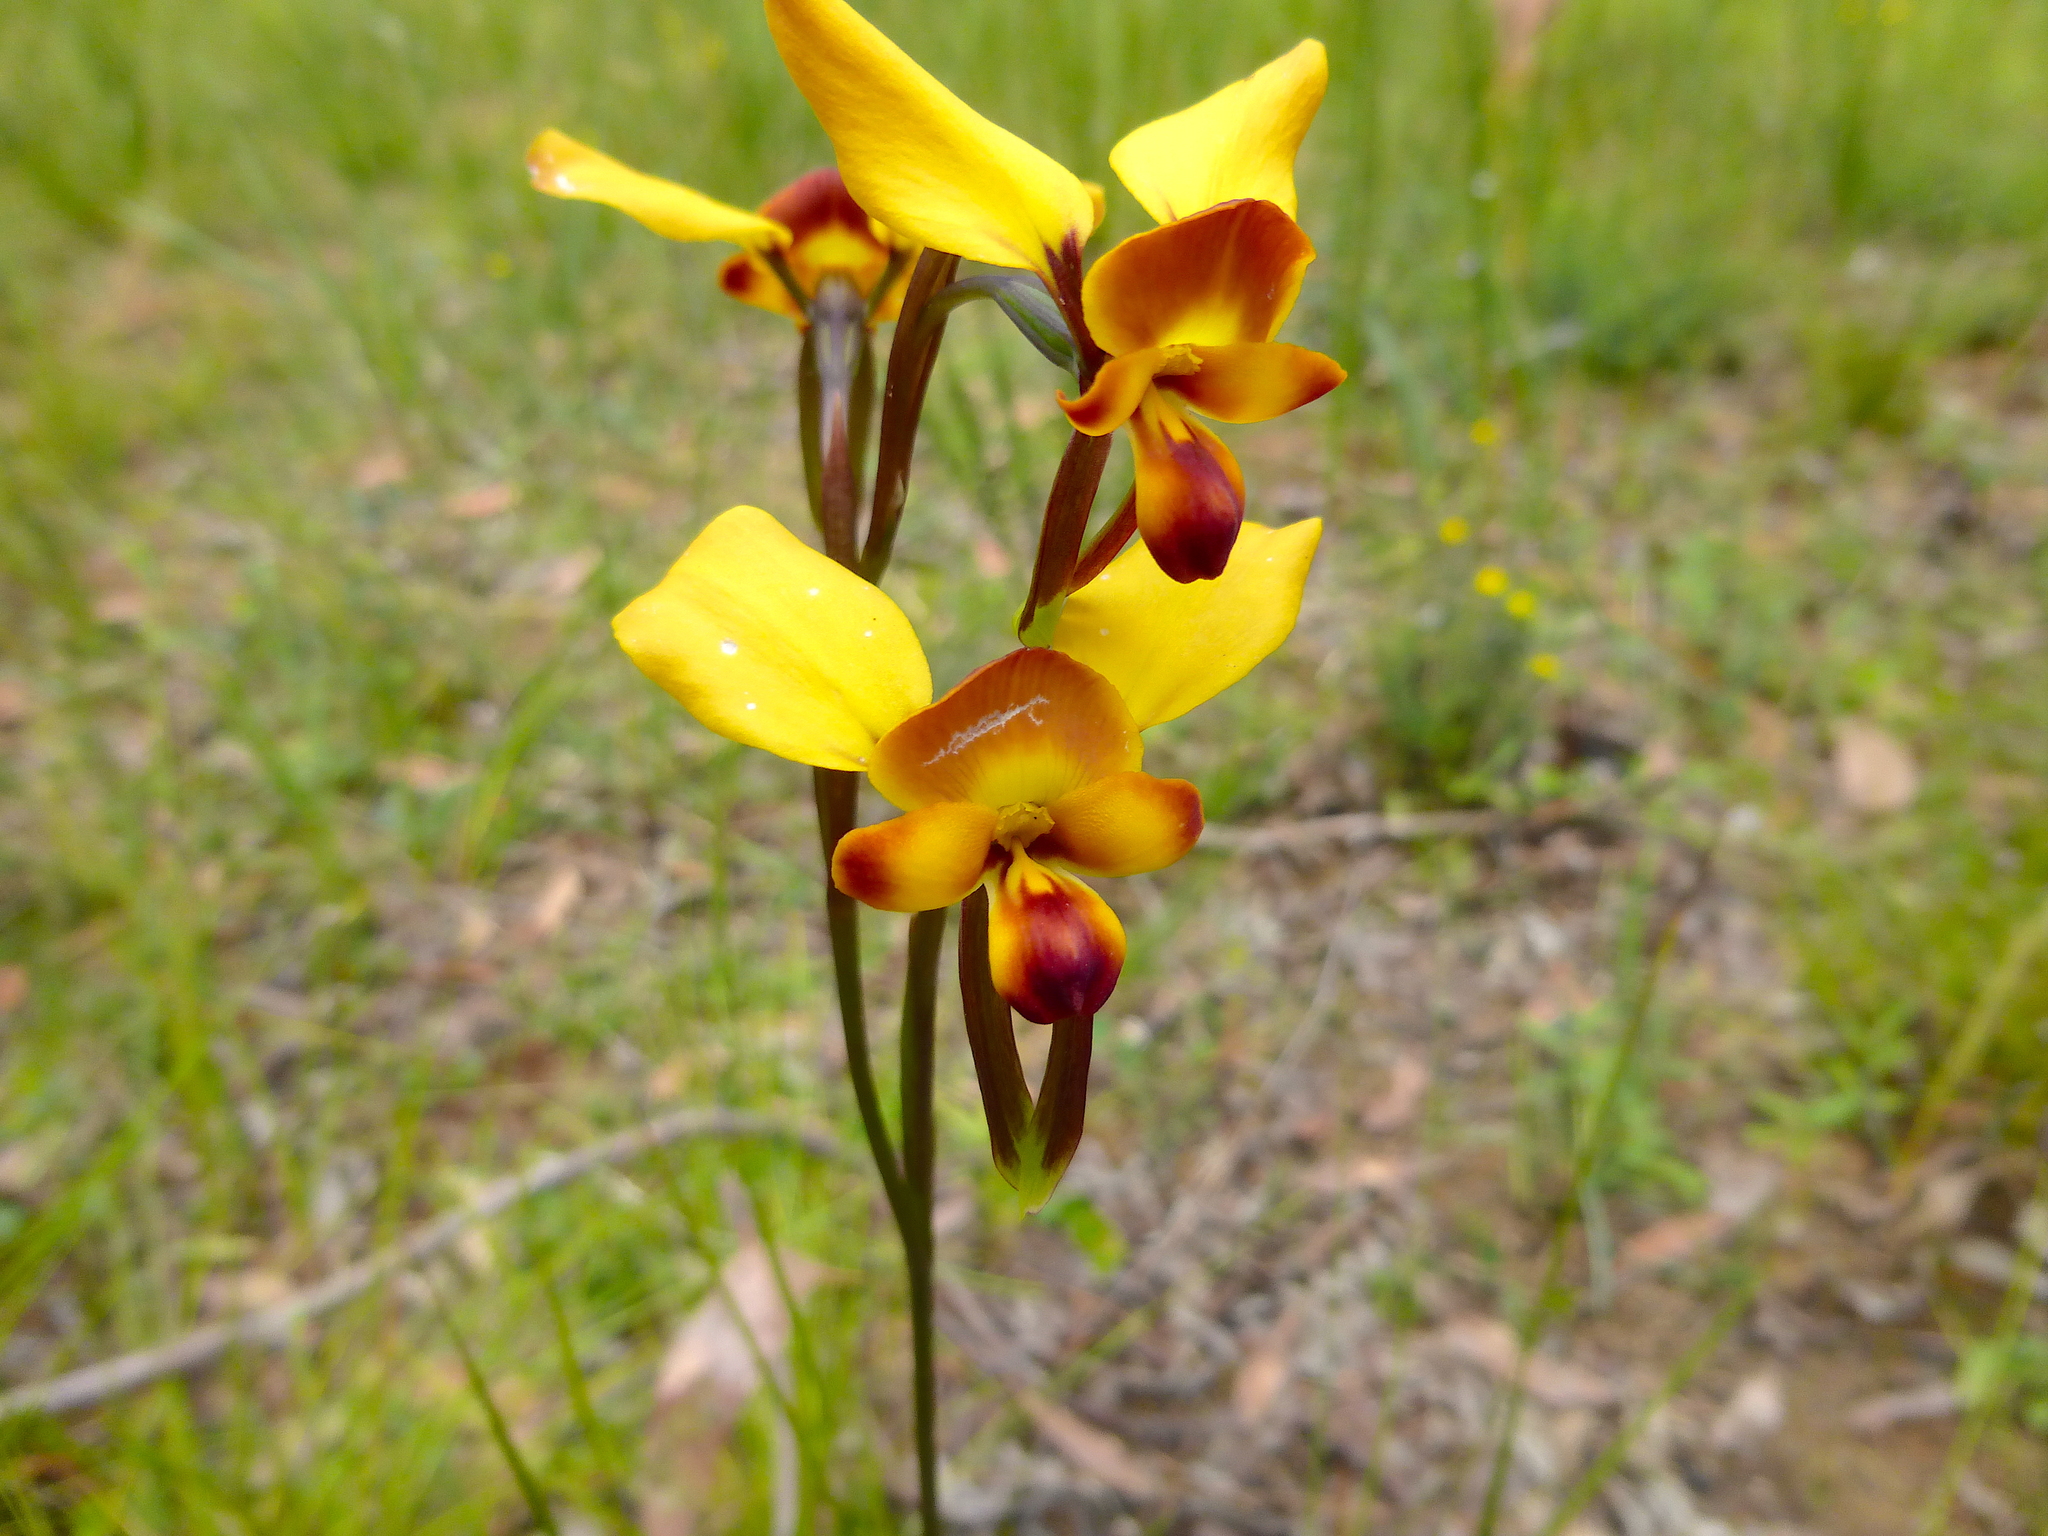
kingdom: Plantae
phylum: Tracheophyta
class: Liliopsida
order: Asparagales
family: Orchidaceae
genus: Diuris
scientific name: Diuris orientis
